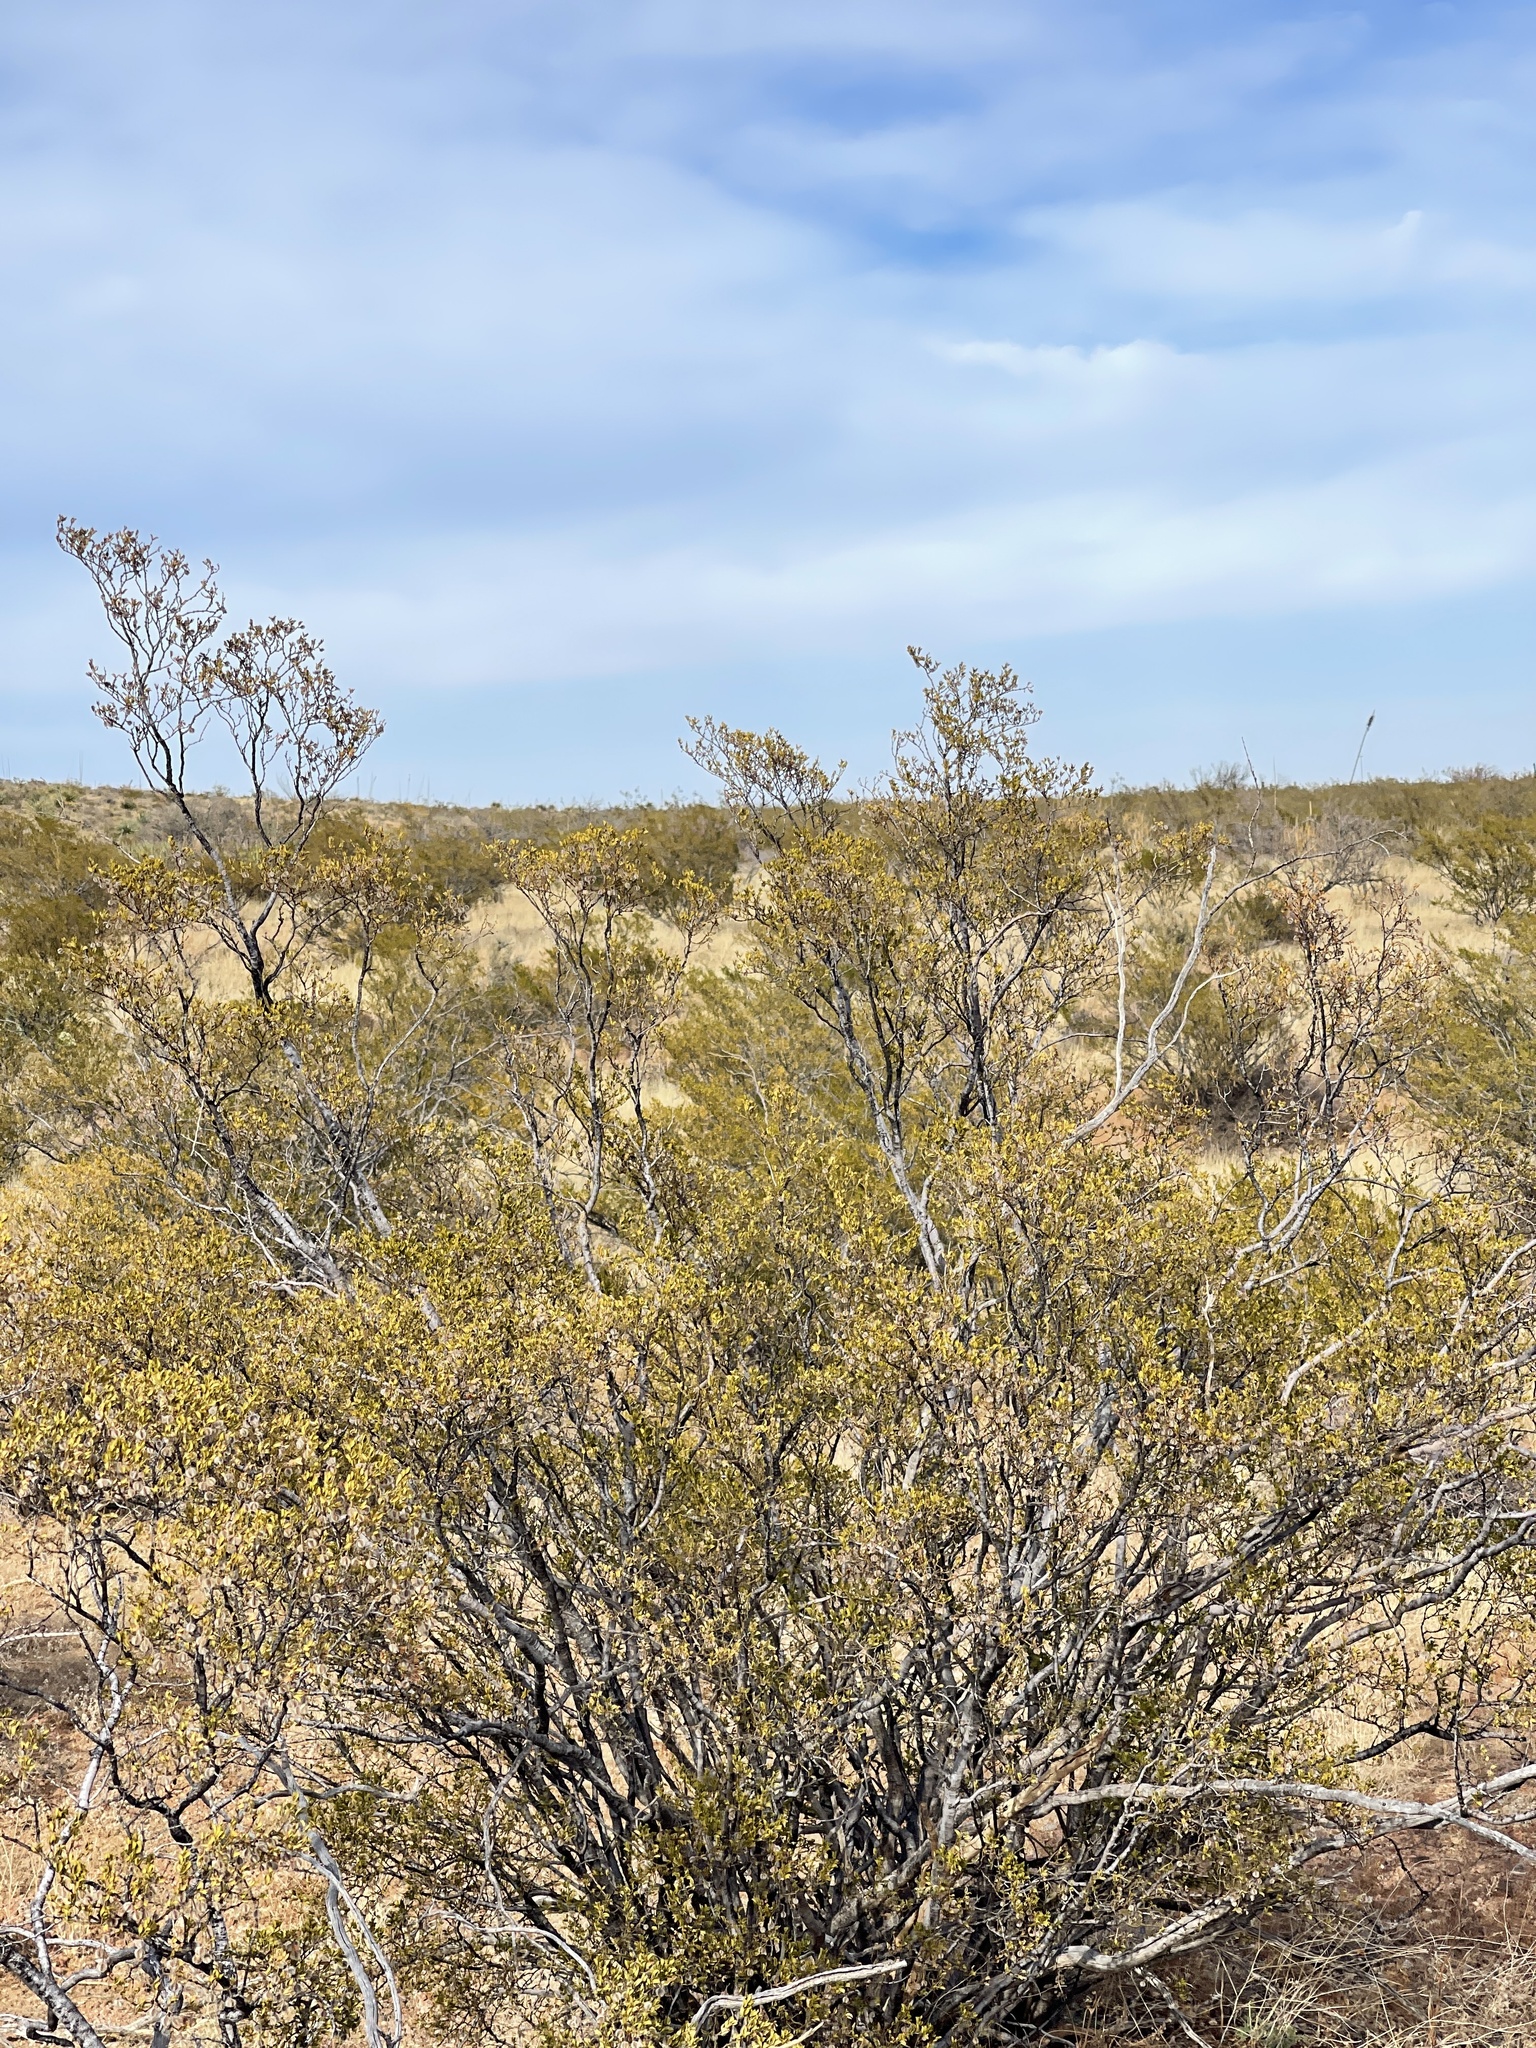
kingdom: Plantae
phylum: Tracheophyta
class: Magnoliopsida
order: Zygophyllales
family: Zygophyllaceae
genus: Larrea
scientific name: Larrea tridentata
